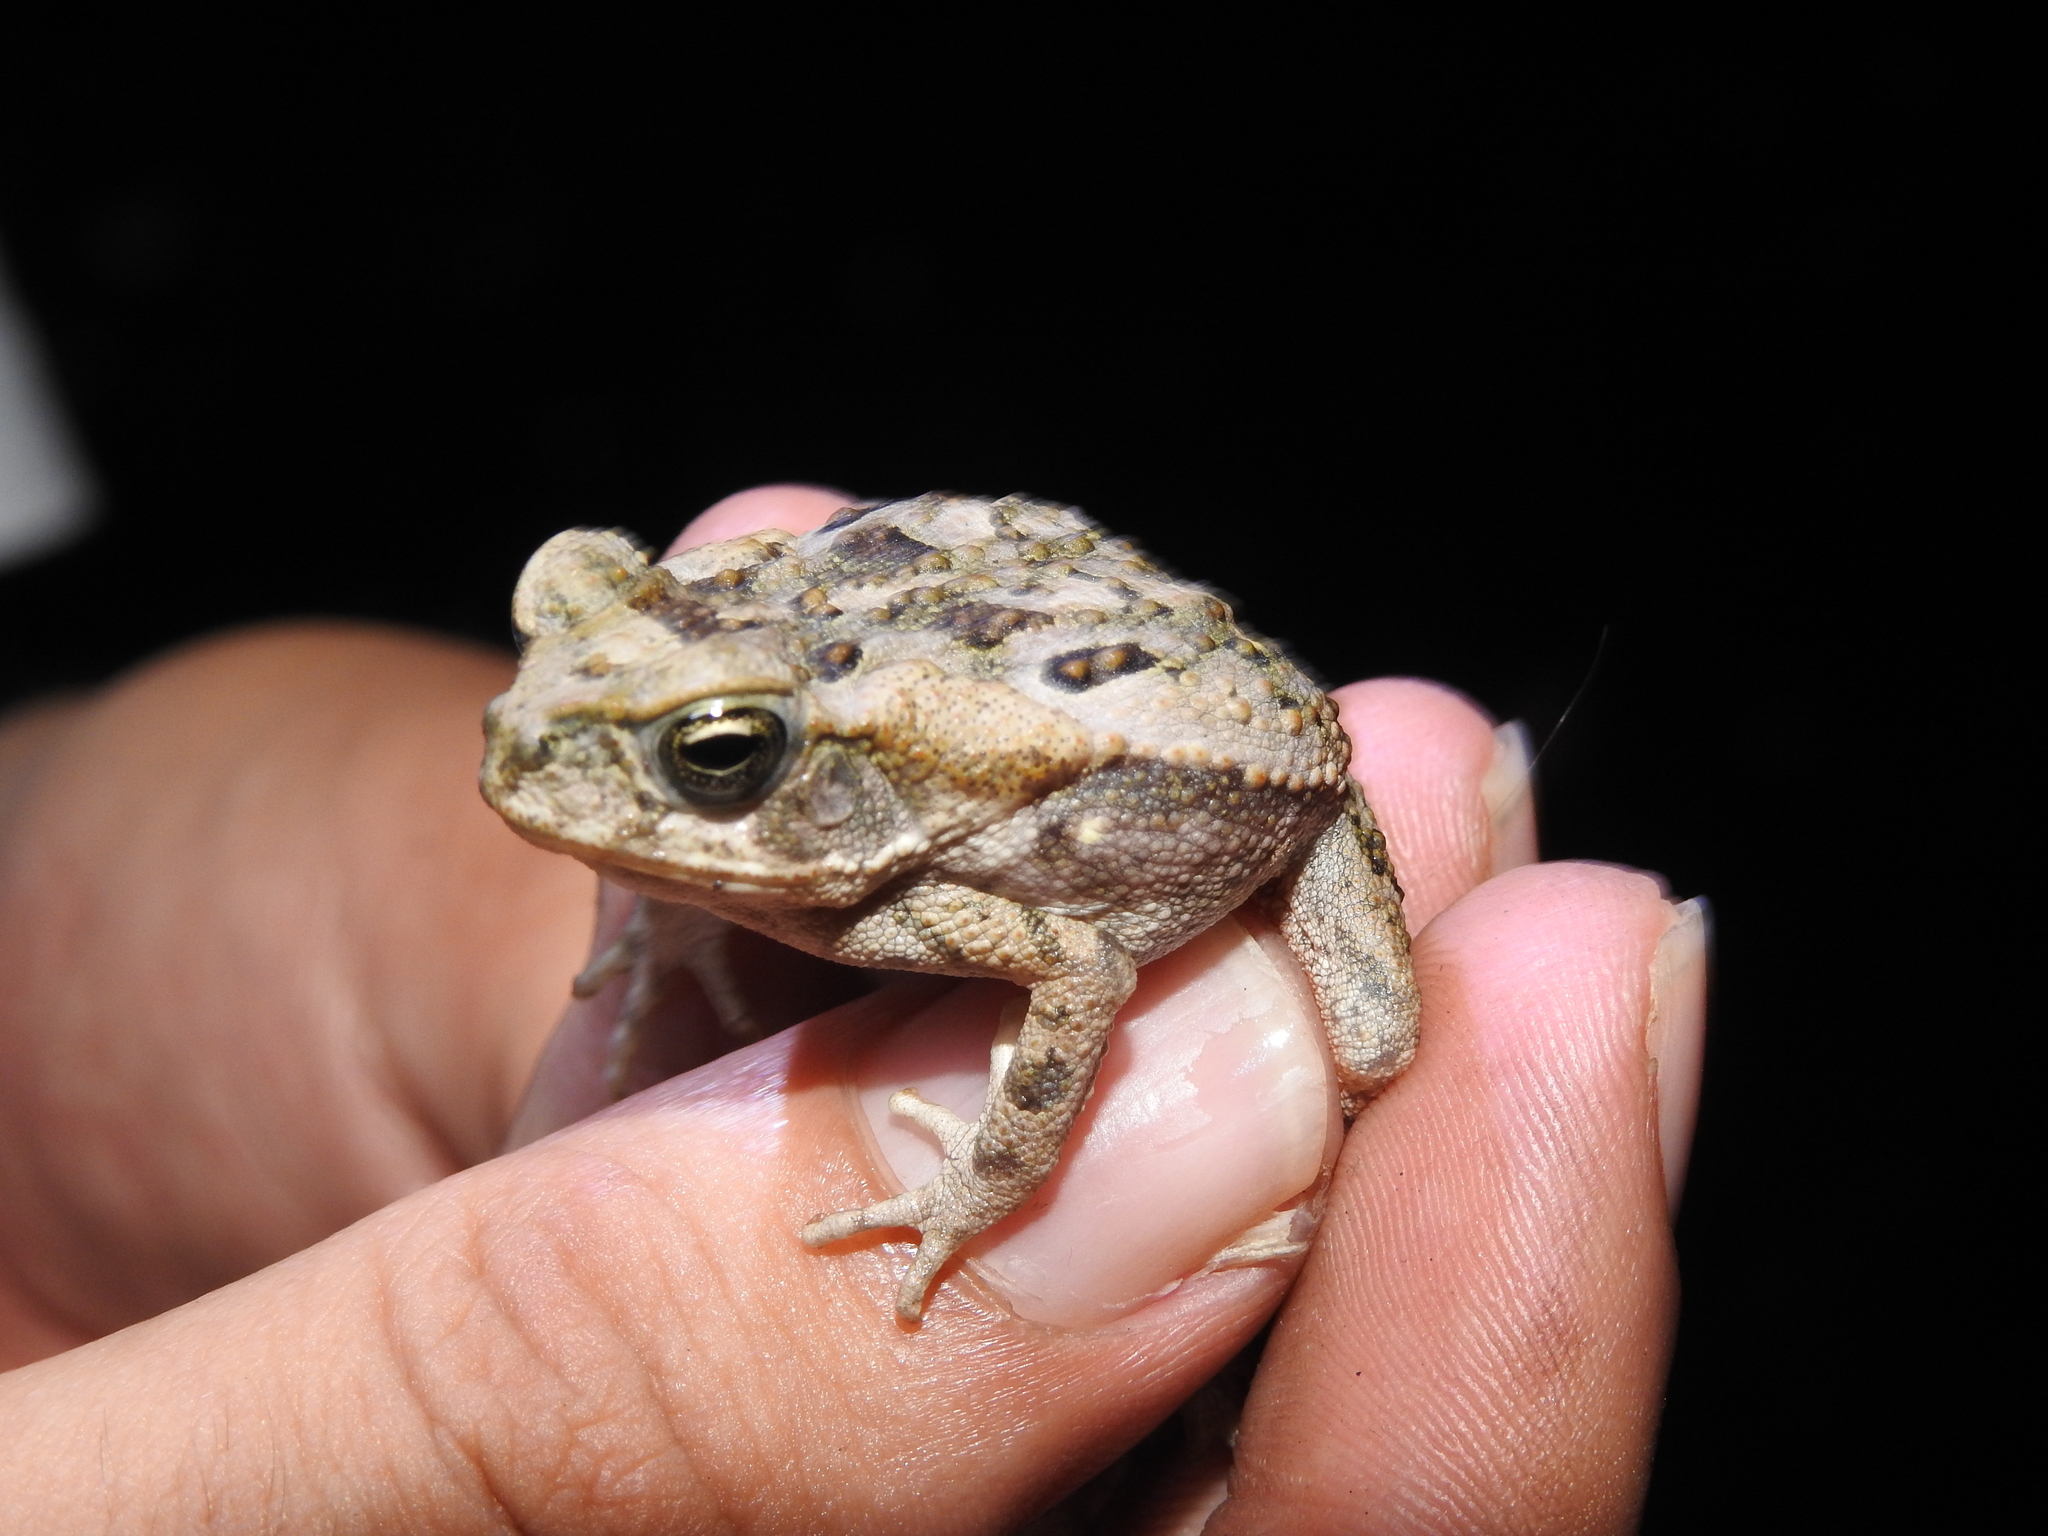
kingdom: Animalia
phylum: Chordata
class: Amphibia
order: Anura
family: Bufonidae
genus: Rhinella
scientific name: Rhinella horribilis
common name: Mesoamerican cane toad
